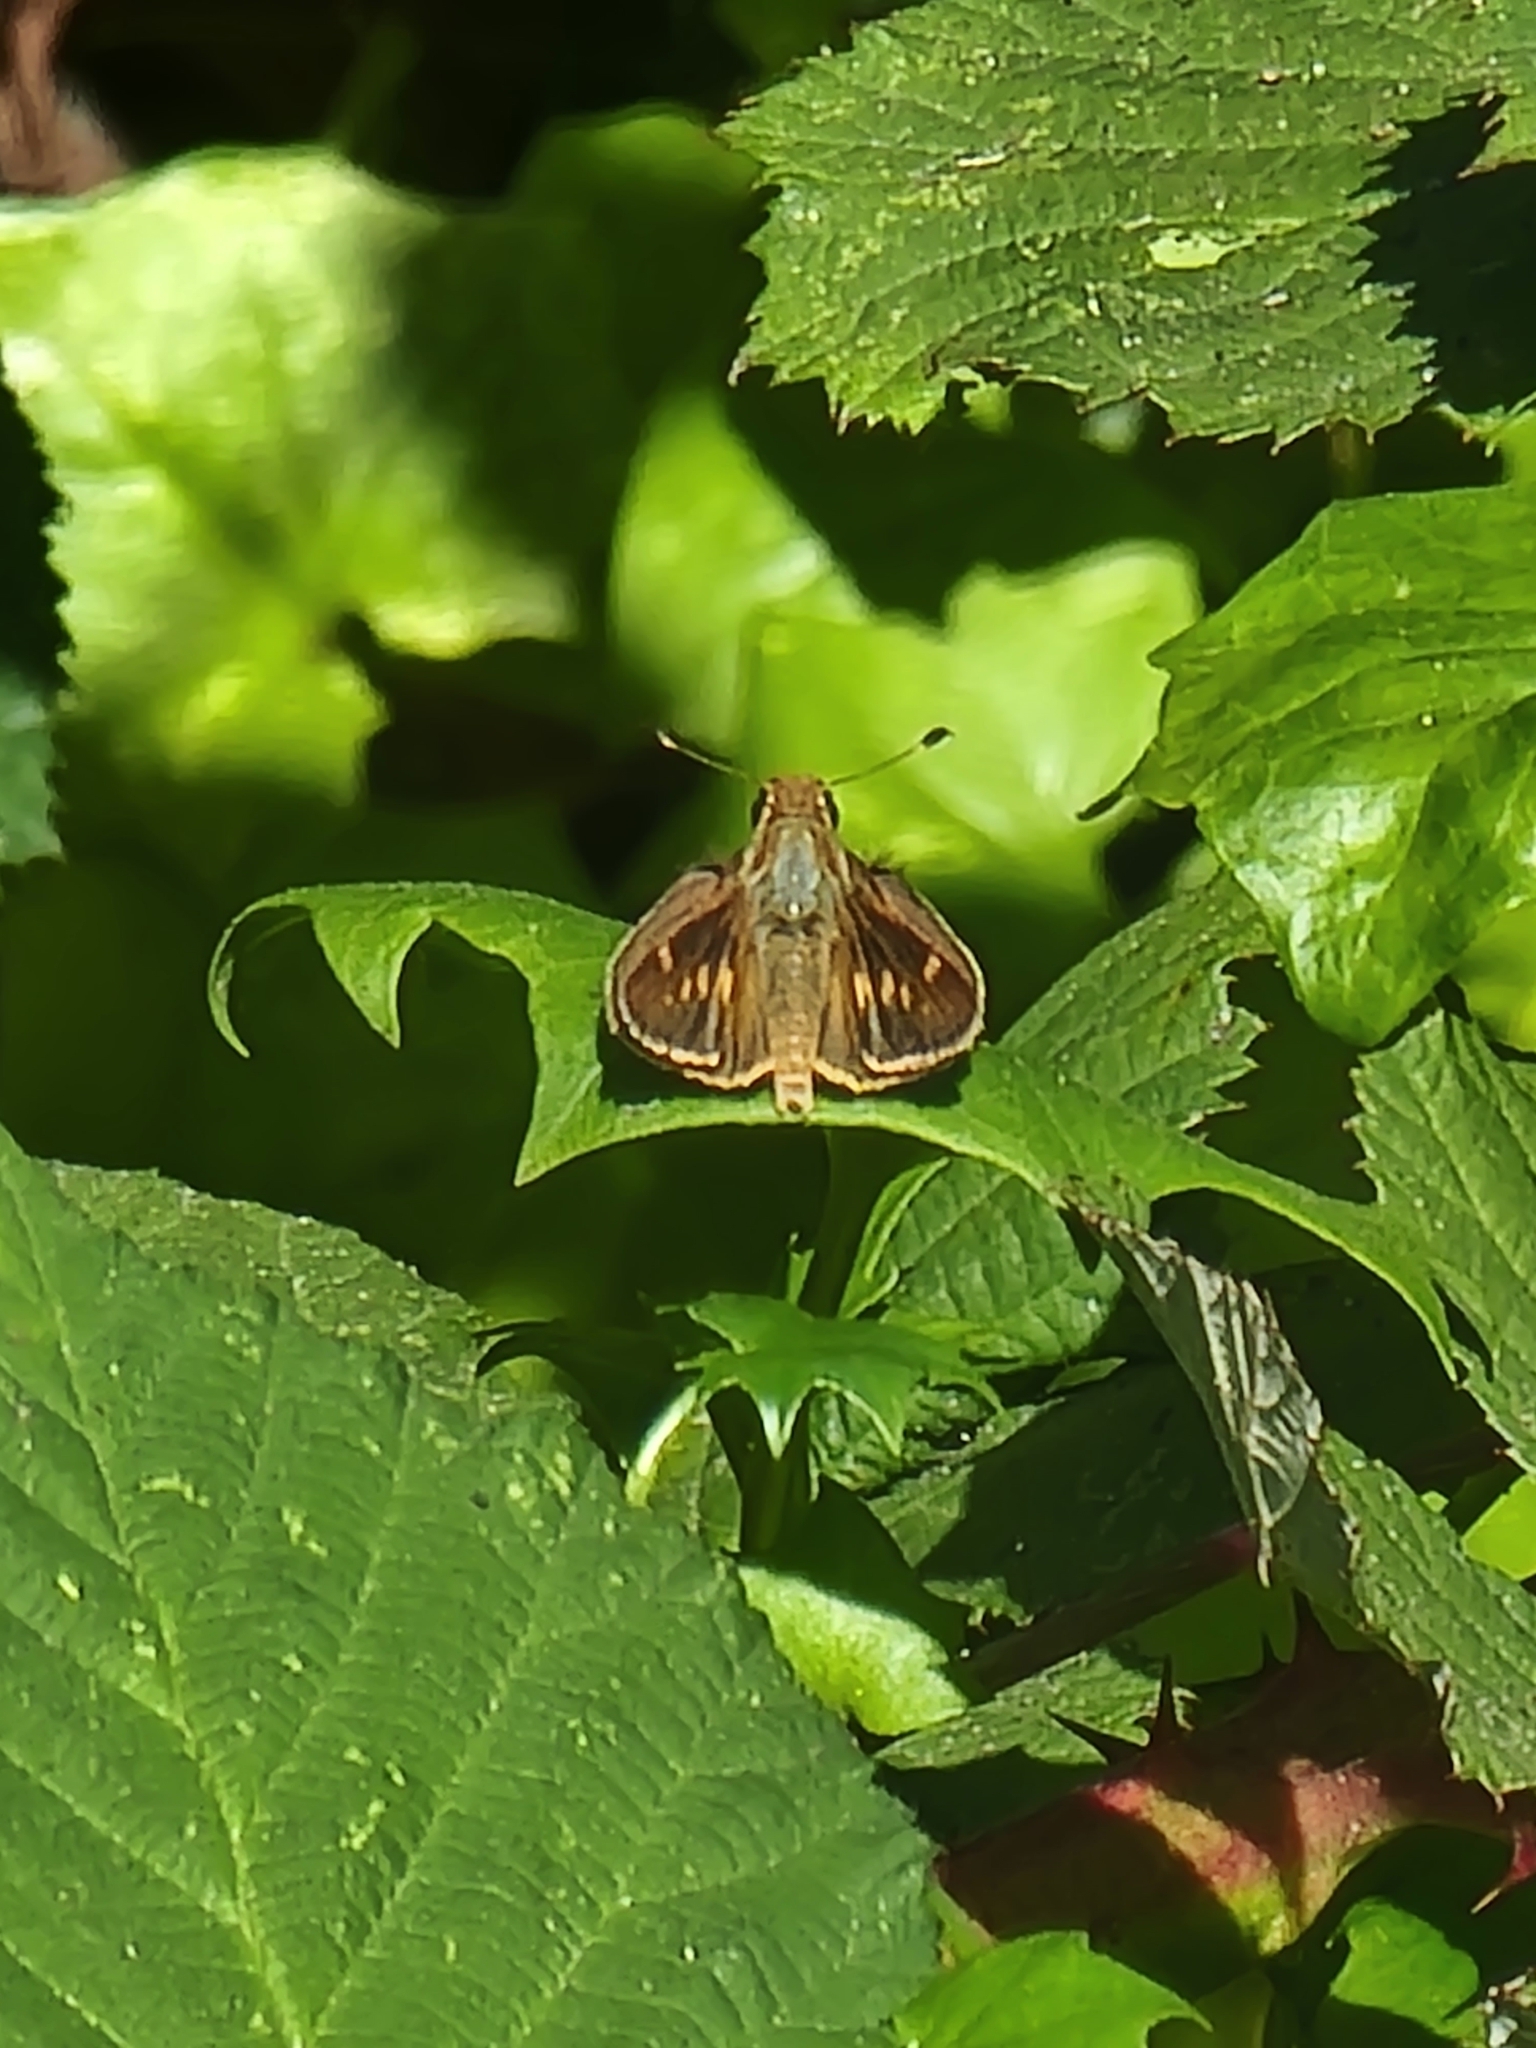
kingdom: Animalia
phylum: Arthropoda
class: Insecta
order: Lepidoptera
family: Hesperiidae
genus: Lon
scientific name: Lon melane
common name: Umber skipper
